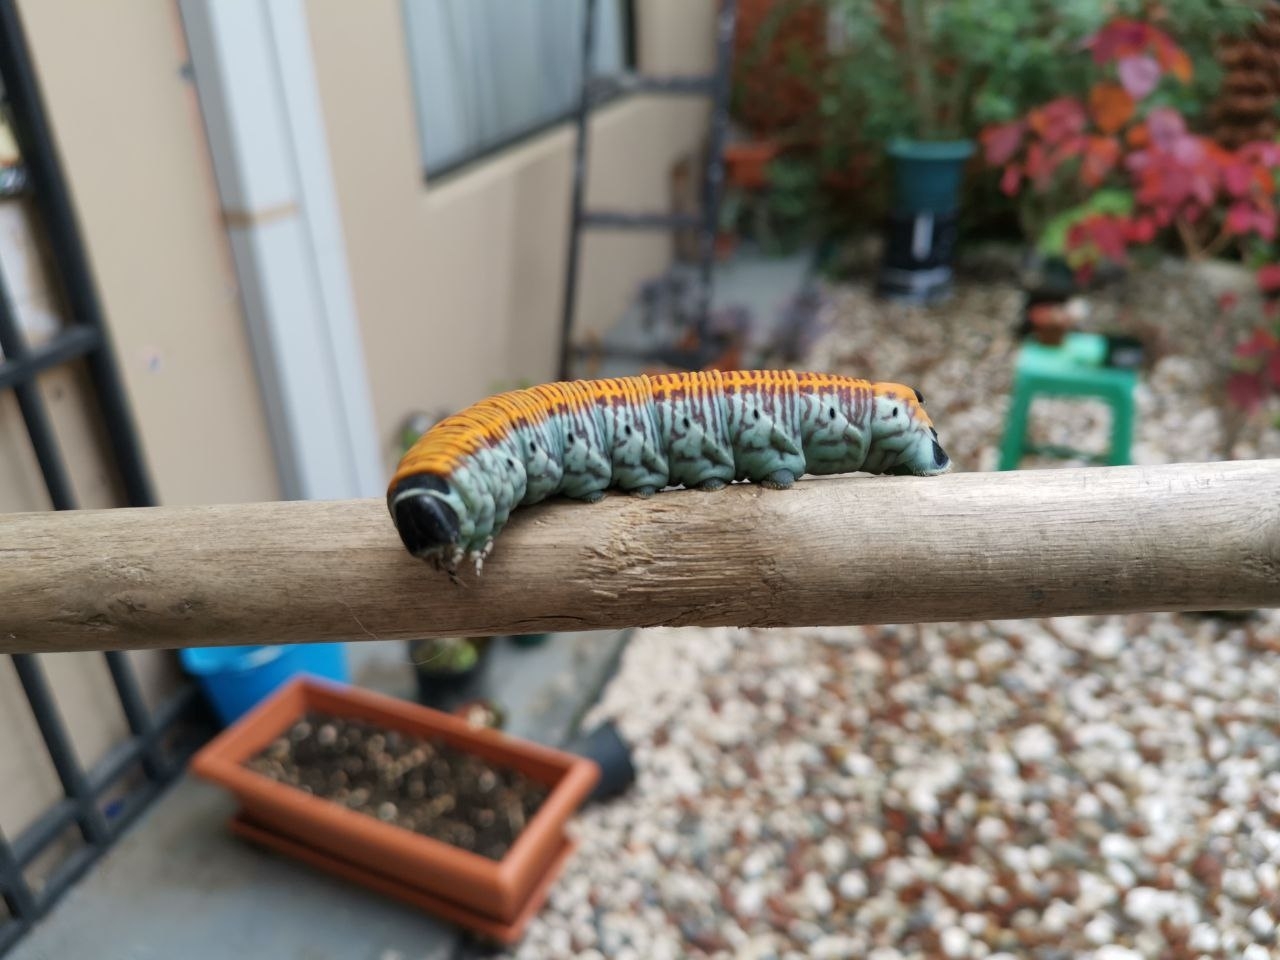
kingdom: Animalia
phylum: Arthropoda
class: Insecta
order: Lepidoptera
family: Sphingidae
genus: Pachylia
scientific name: Pachylia ficus
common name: Fig sphinx
